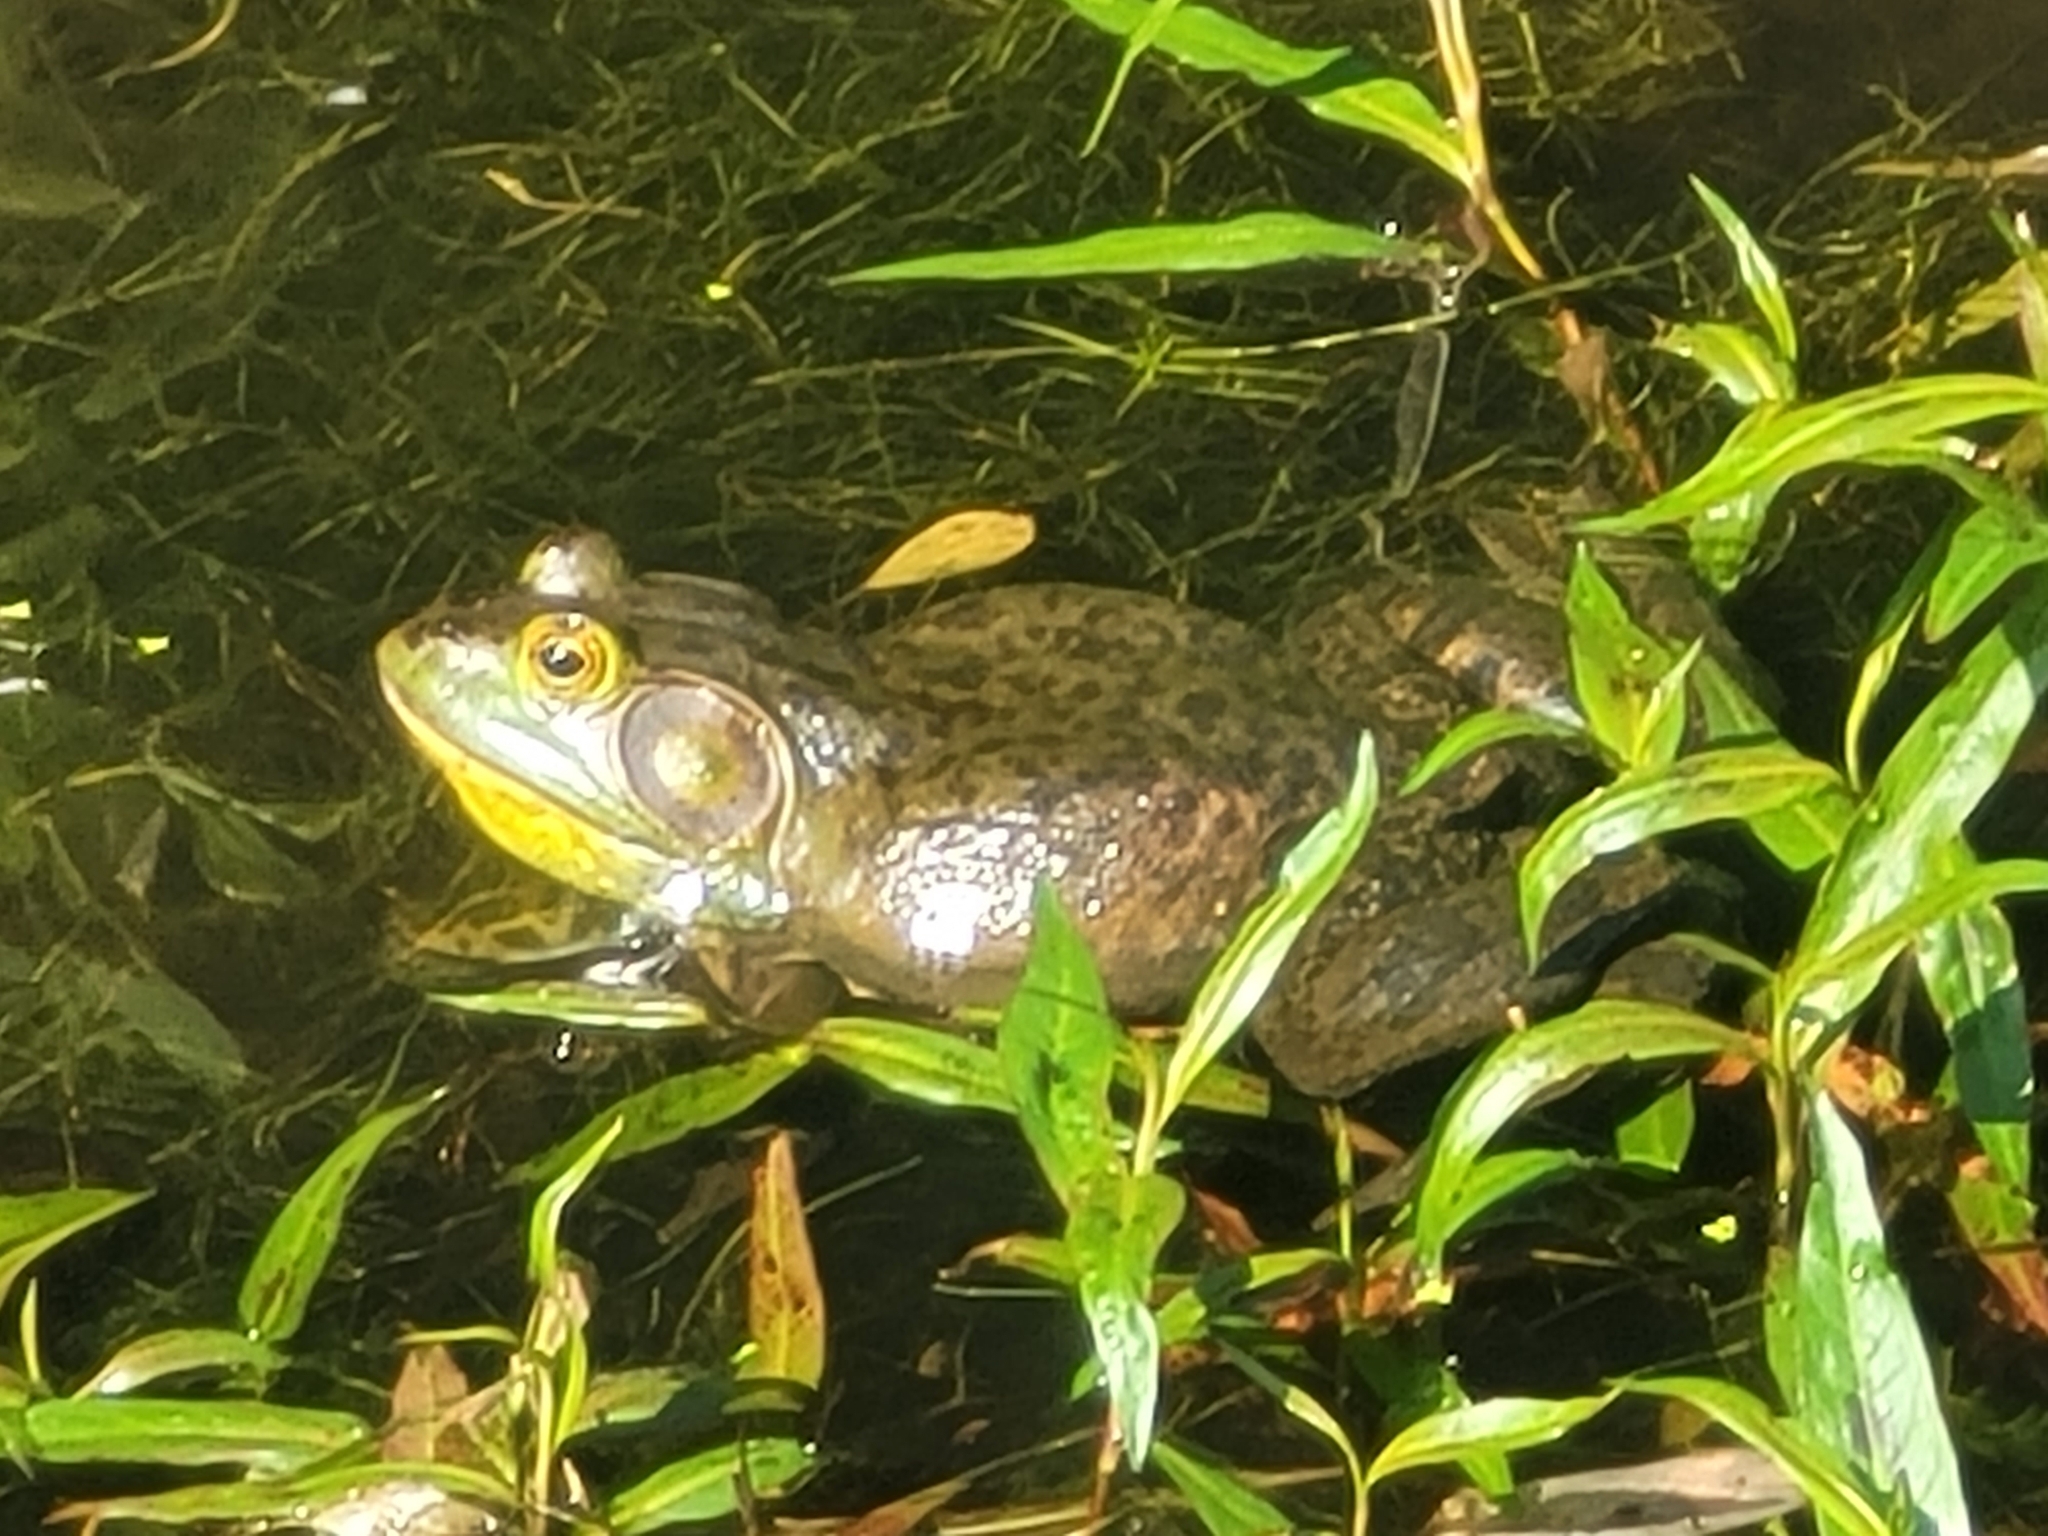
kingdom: Animalia
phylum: Chordata
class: Amphibia
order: Anura
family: Ranidae
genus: Lithobates
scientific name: Lithobates catesbeianus
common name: American bullfrog
